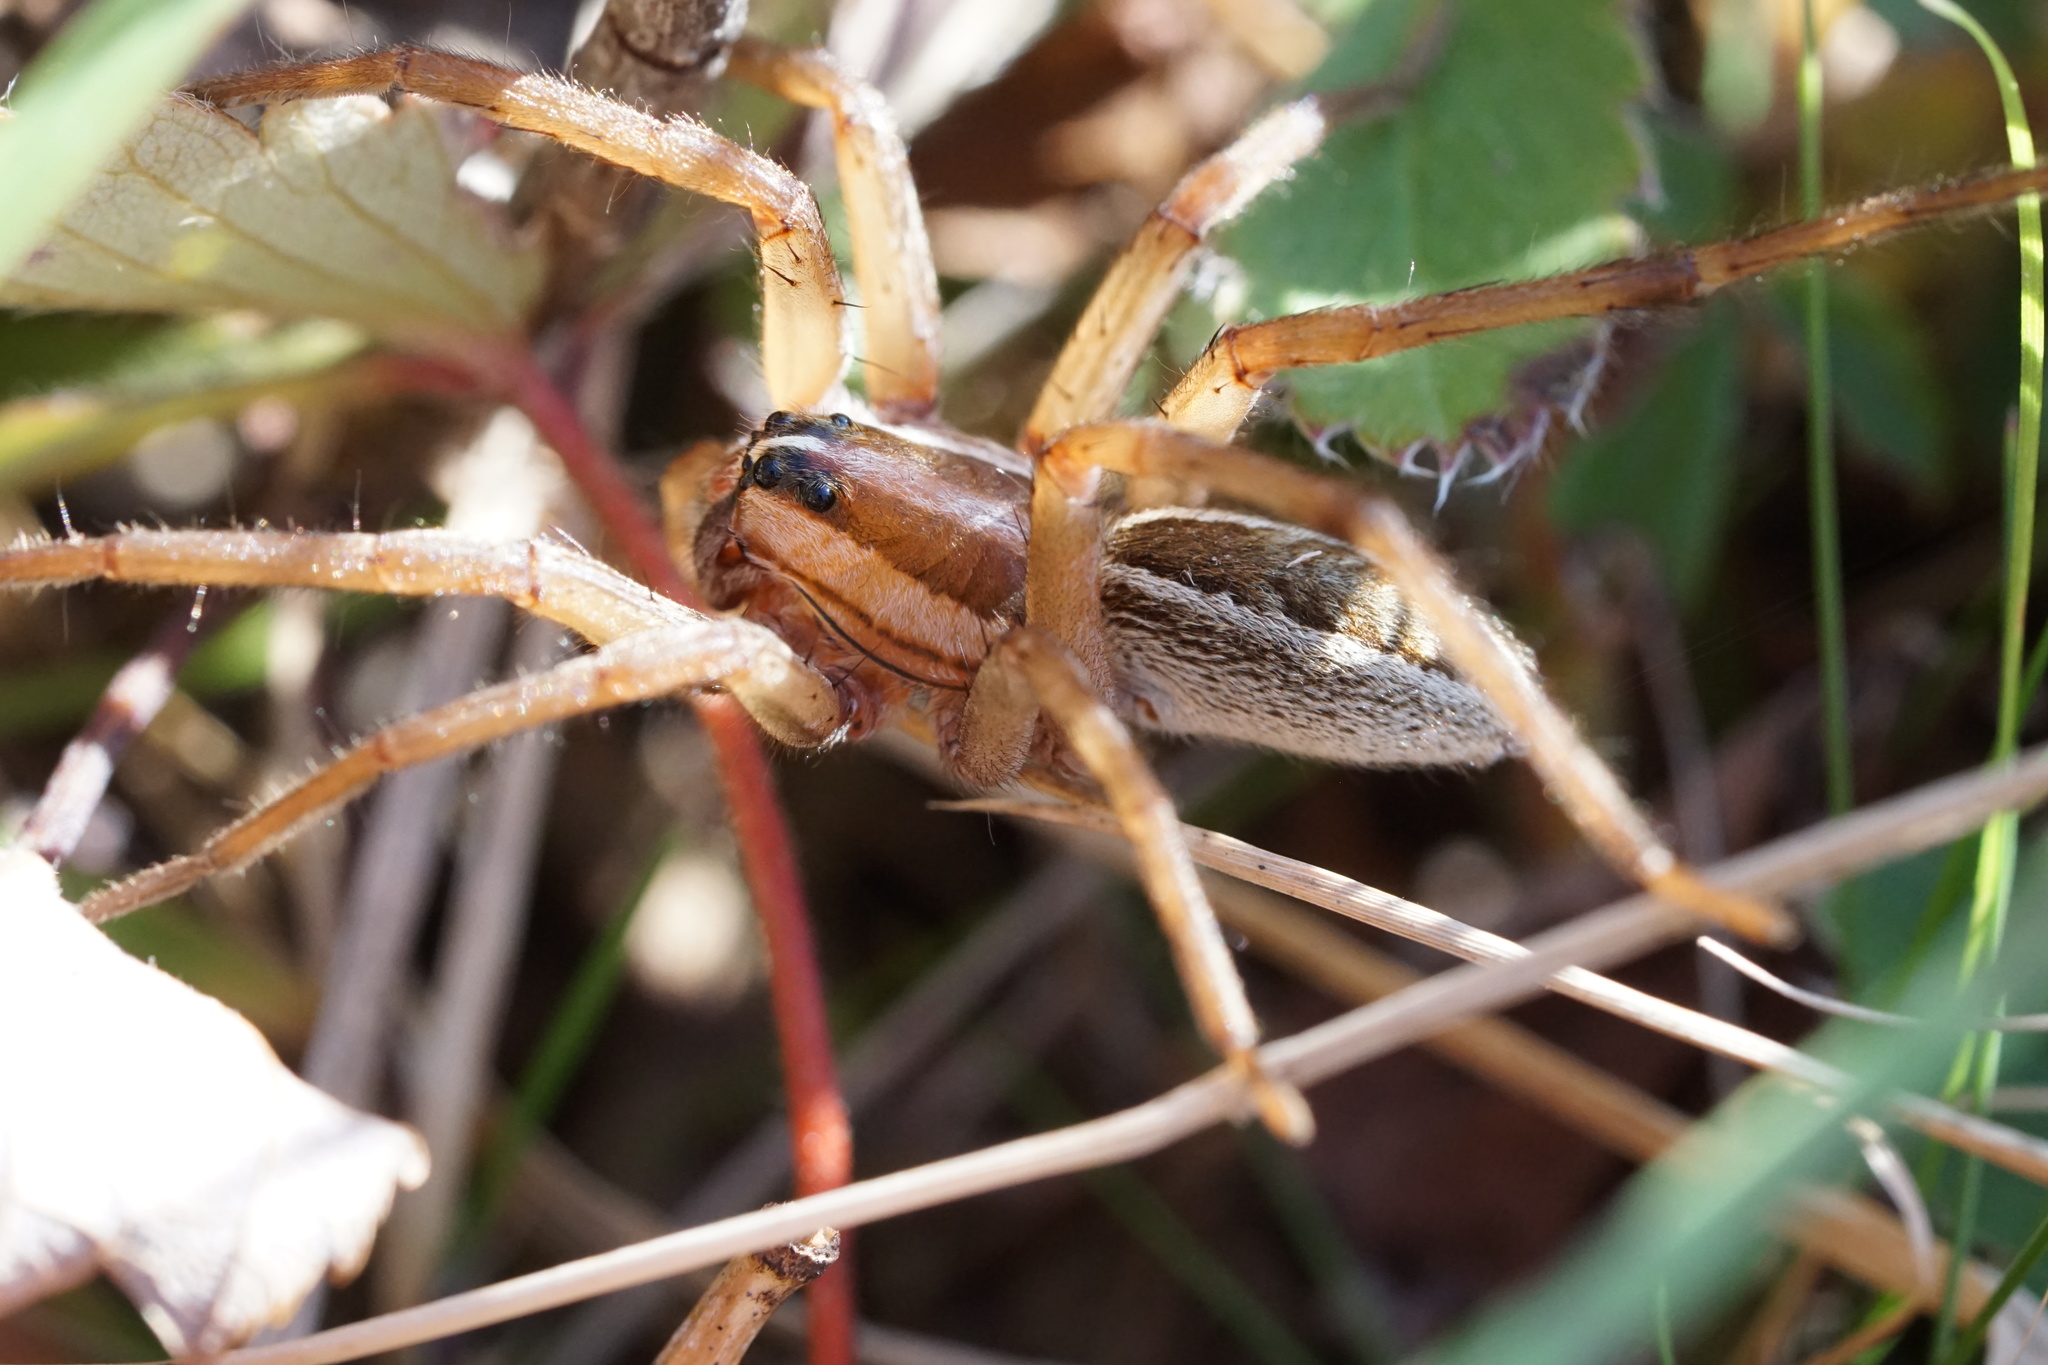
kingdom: Animalia
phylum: Arthropoda
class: Arachnida
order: Araneae
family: Lycosidae
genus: Rabidosa
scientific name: Rabidosa rabida
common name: Rabid wolf spider
